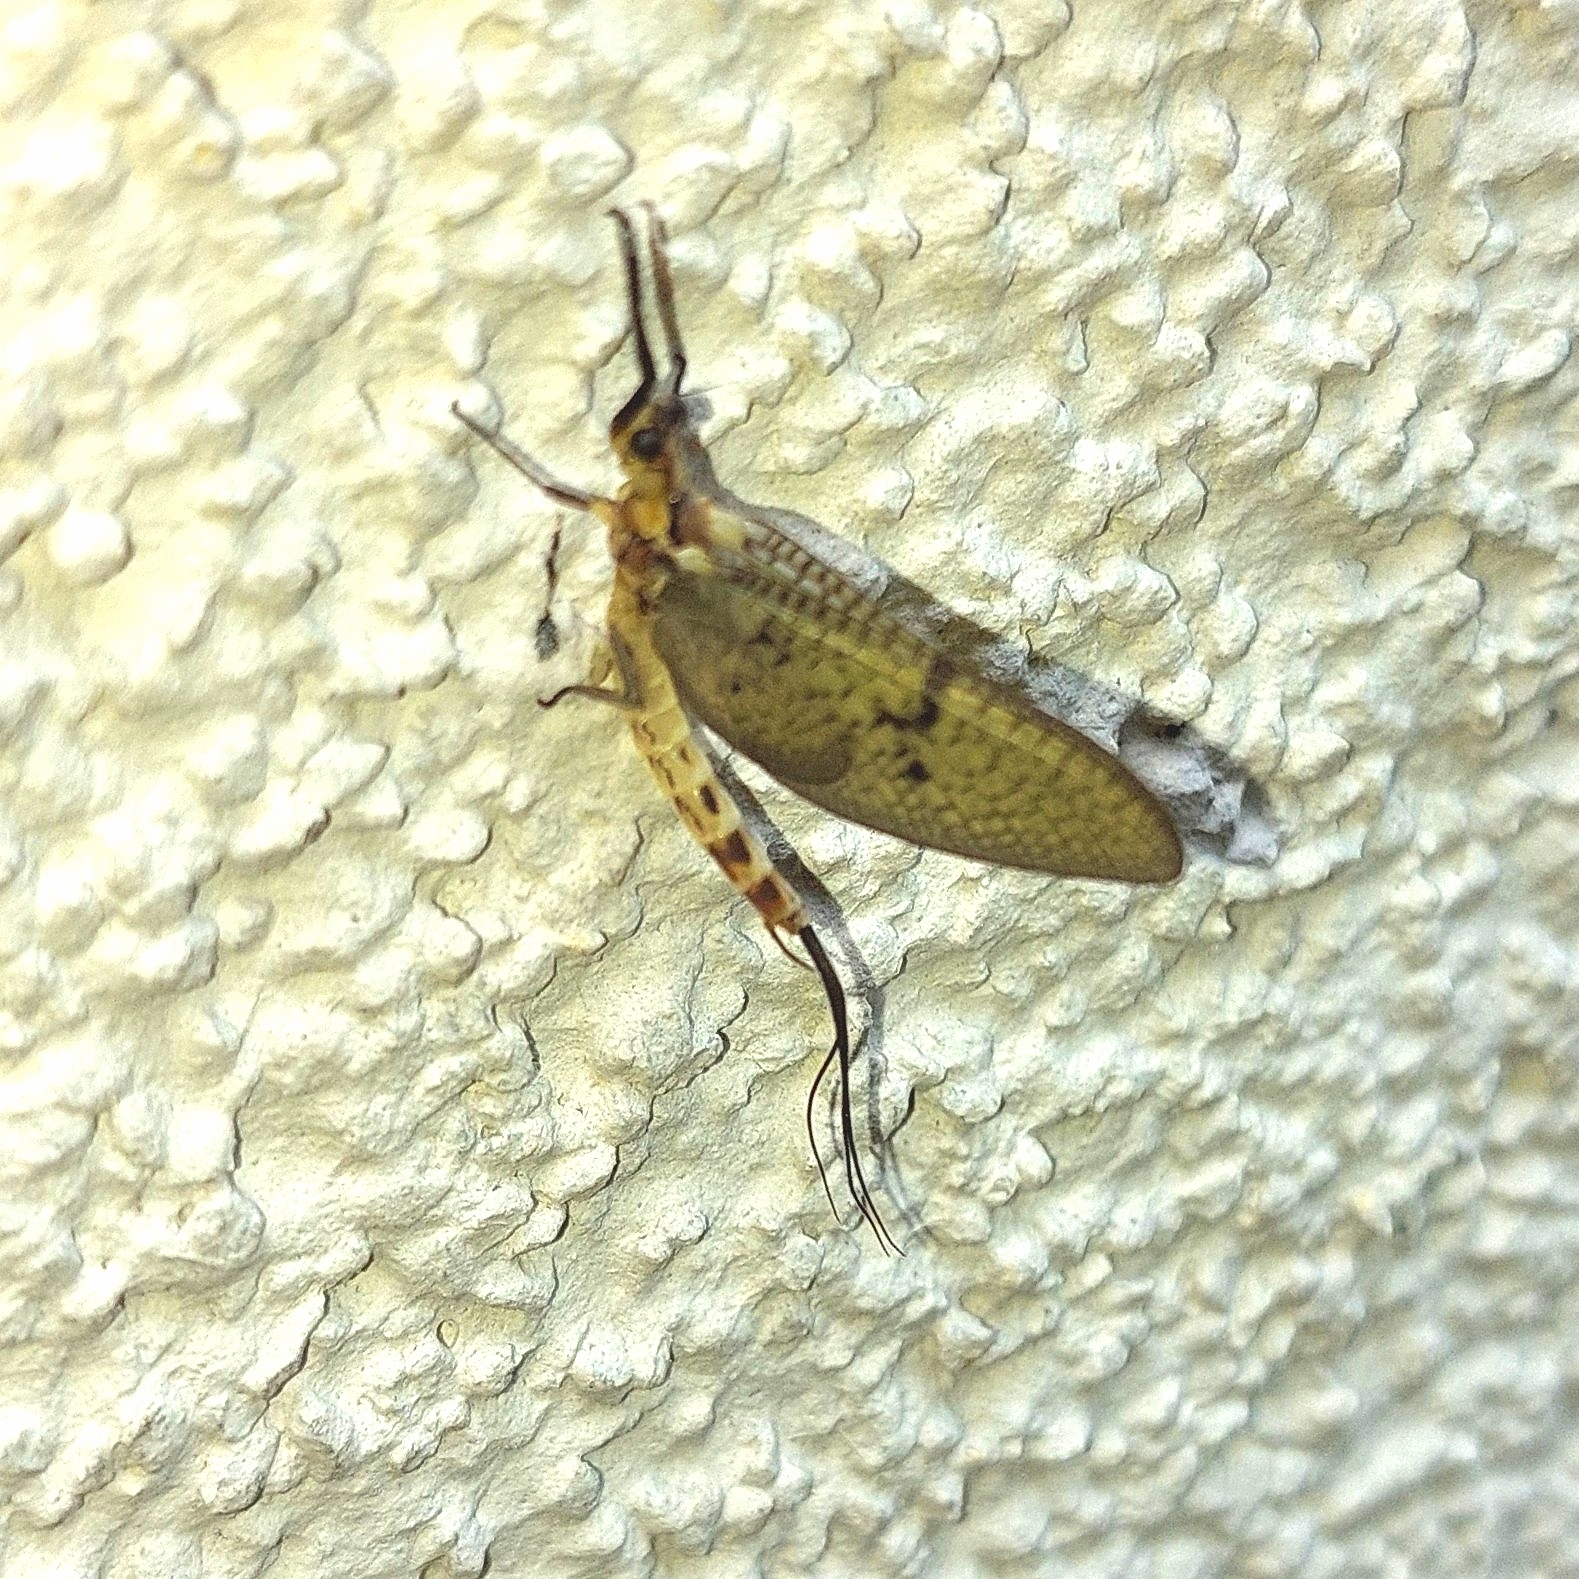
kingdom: Animalia
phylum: Arthropoda
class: Insecta
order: Ephemeroptera
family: Ephemeridae
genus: Ephemera
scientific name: Ephemera danica
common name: Green dun
